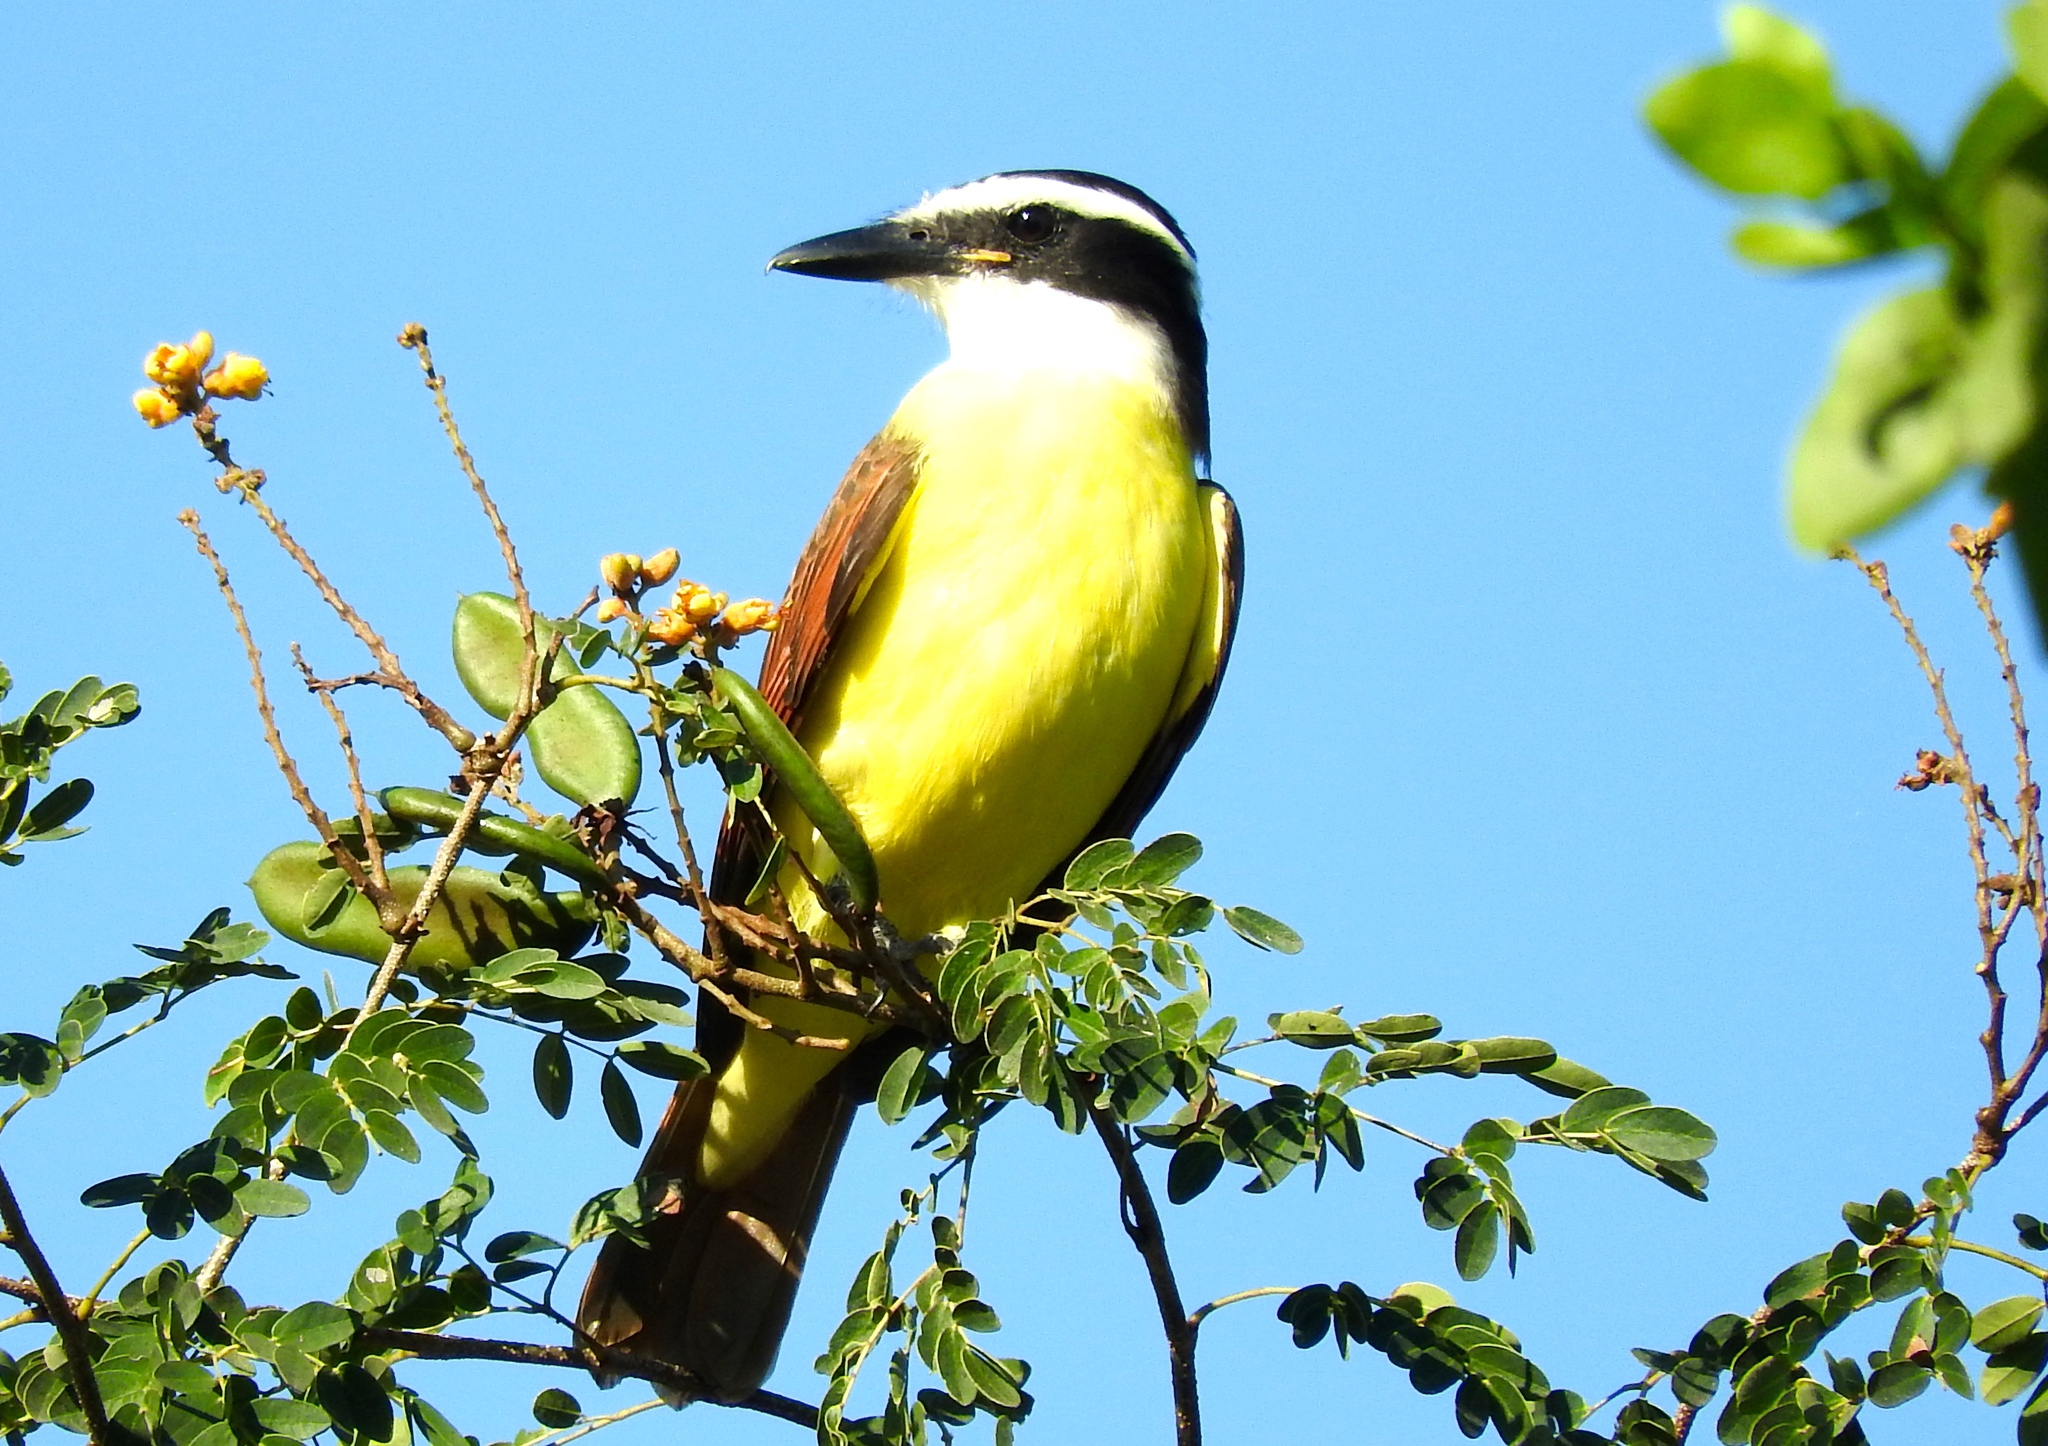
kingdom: Animalia
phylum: Chordata
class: Aves
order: Passeriformes
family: Tyrannidae
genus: Pitangus
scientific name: Pitangus sulphuratus
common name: Great kiskadee
